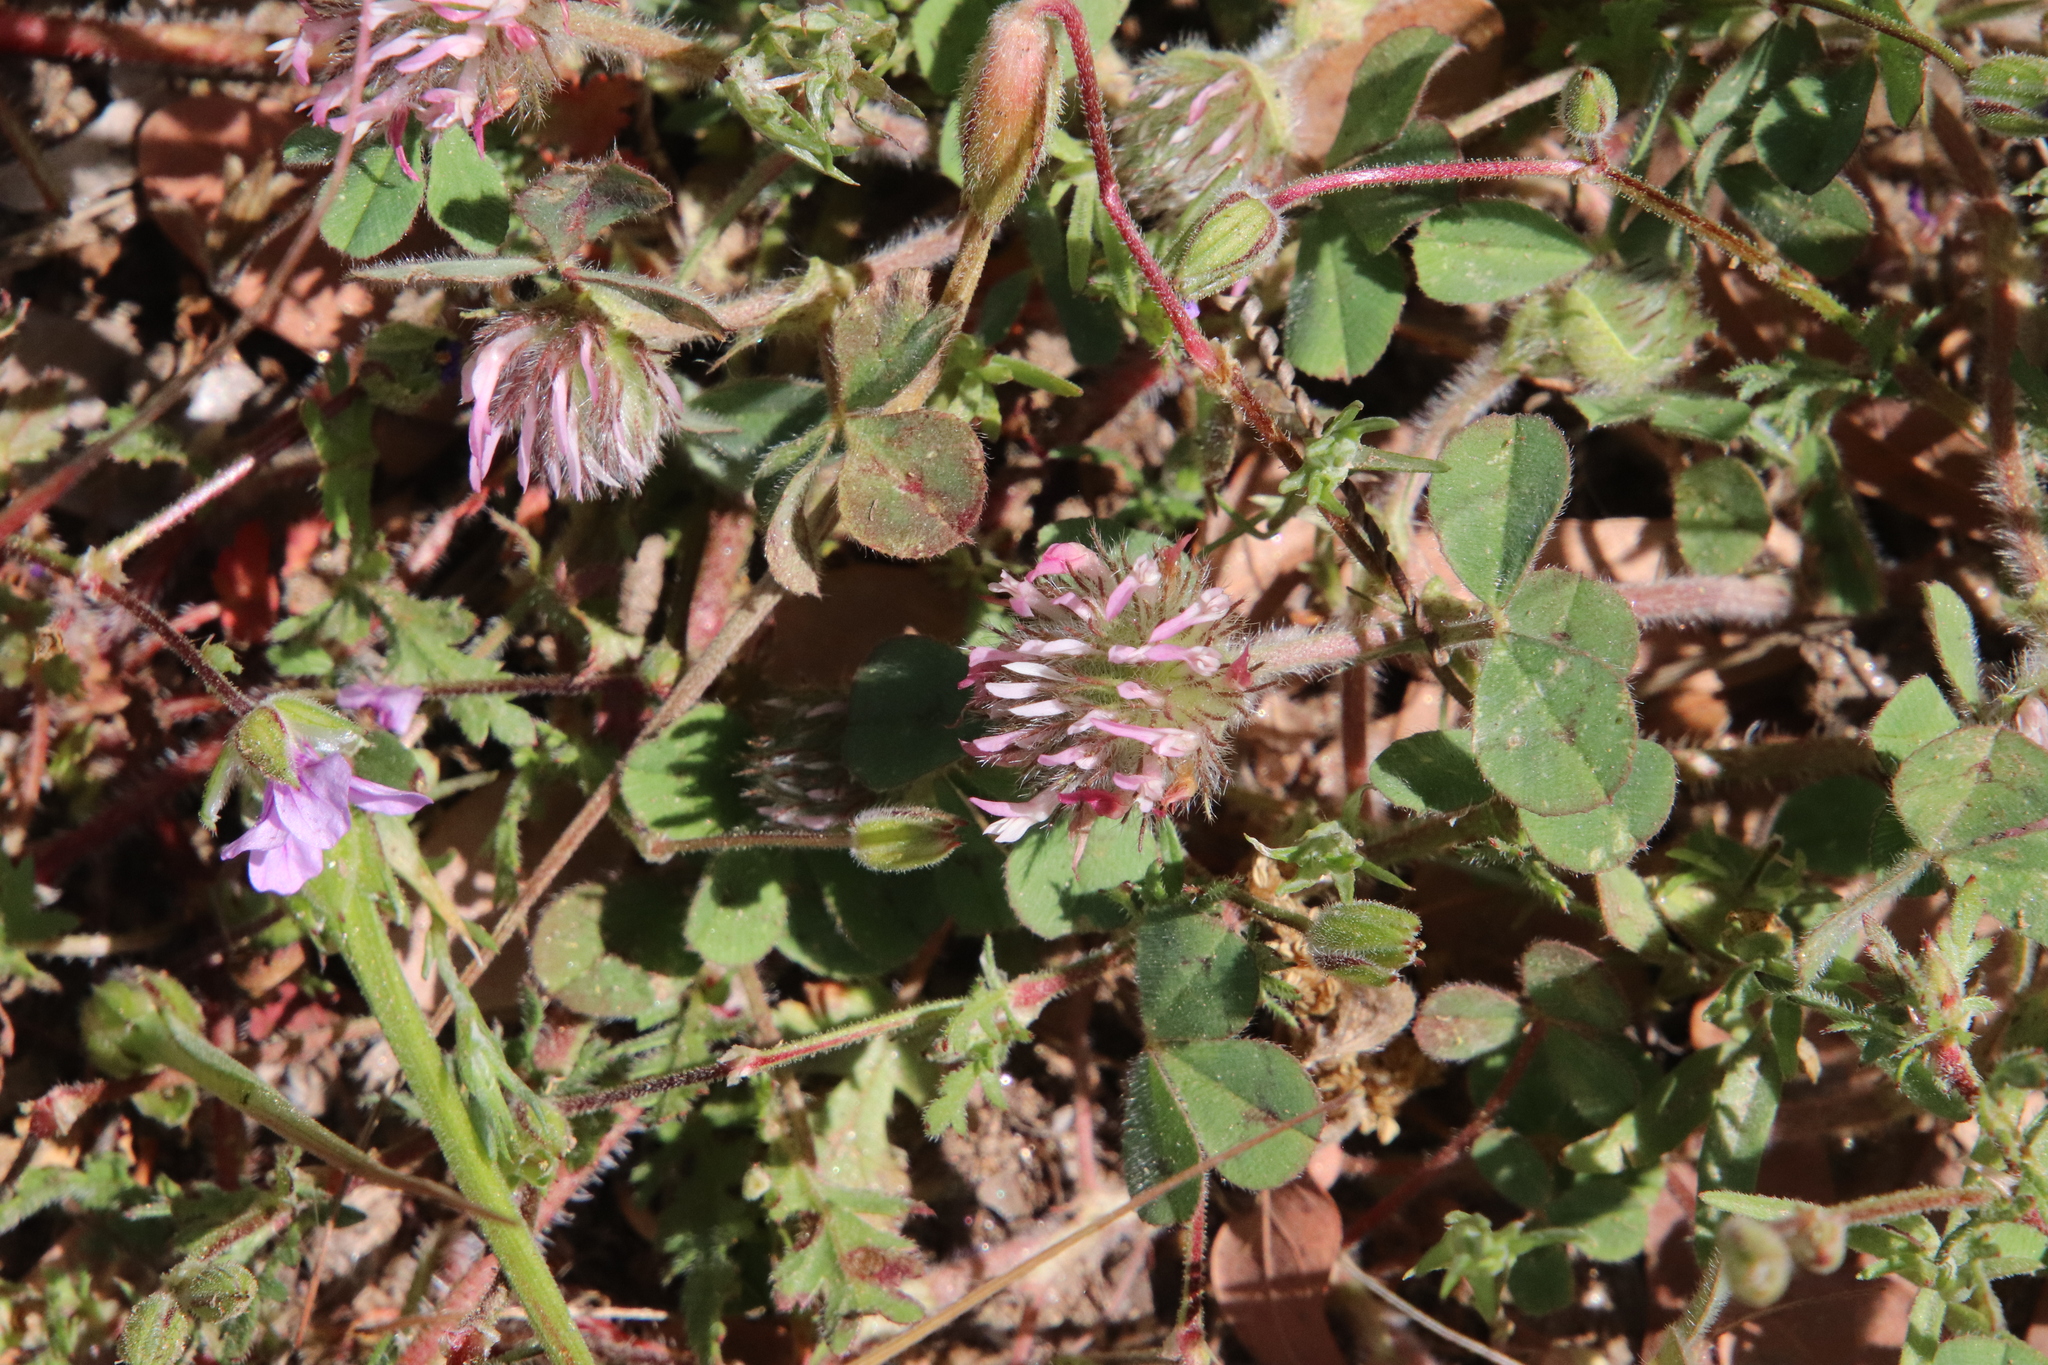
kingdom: Plantae
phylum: Tracheophyta
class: Magnoliopsida
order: Fabales
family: Fabaceae
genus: Trifolium
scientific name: Trifolium hirtum
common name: Rose clover
